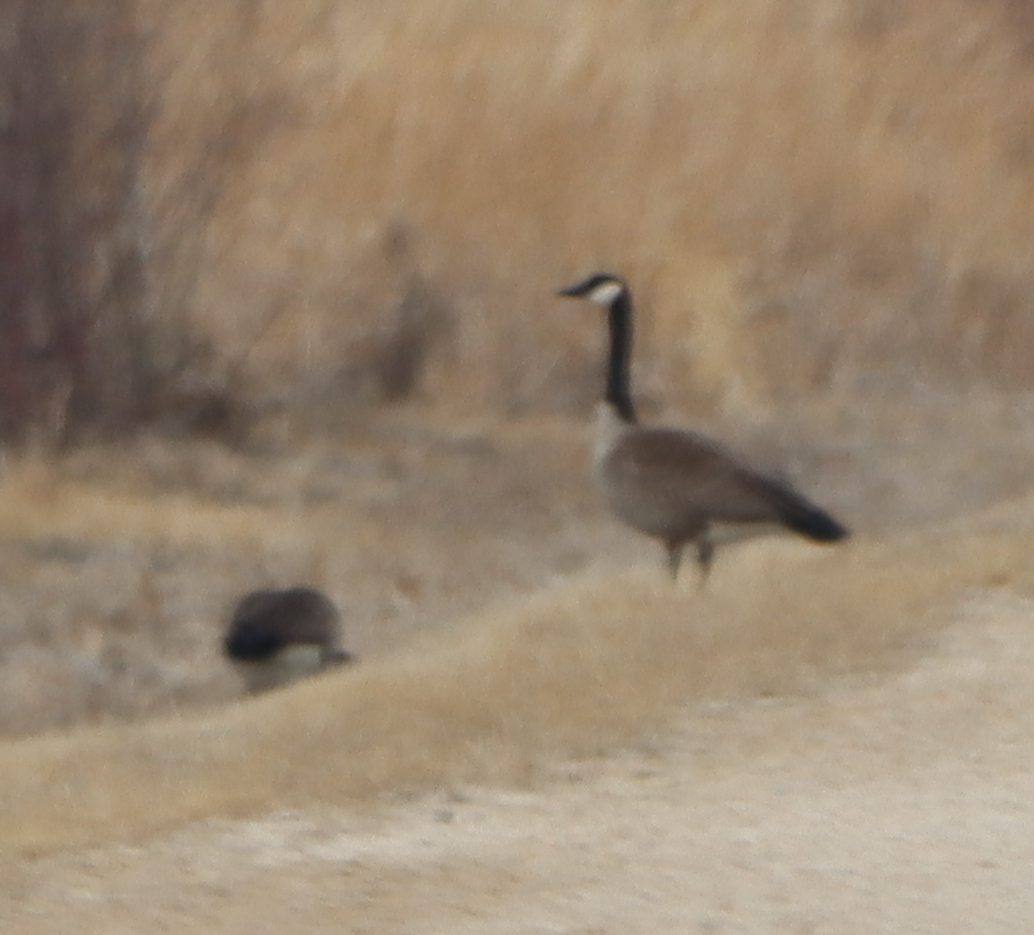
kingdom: Animalia
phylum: Chordata
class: Aves
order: Anseriformes
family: Anatidae
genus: Branta
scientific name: Branta canadensis
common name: Canada goose
